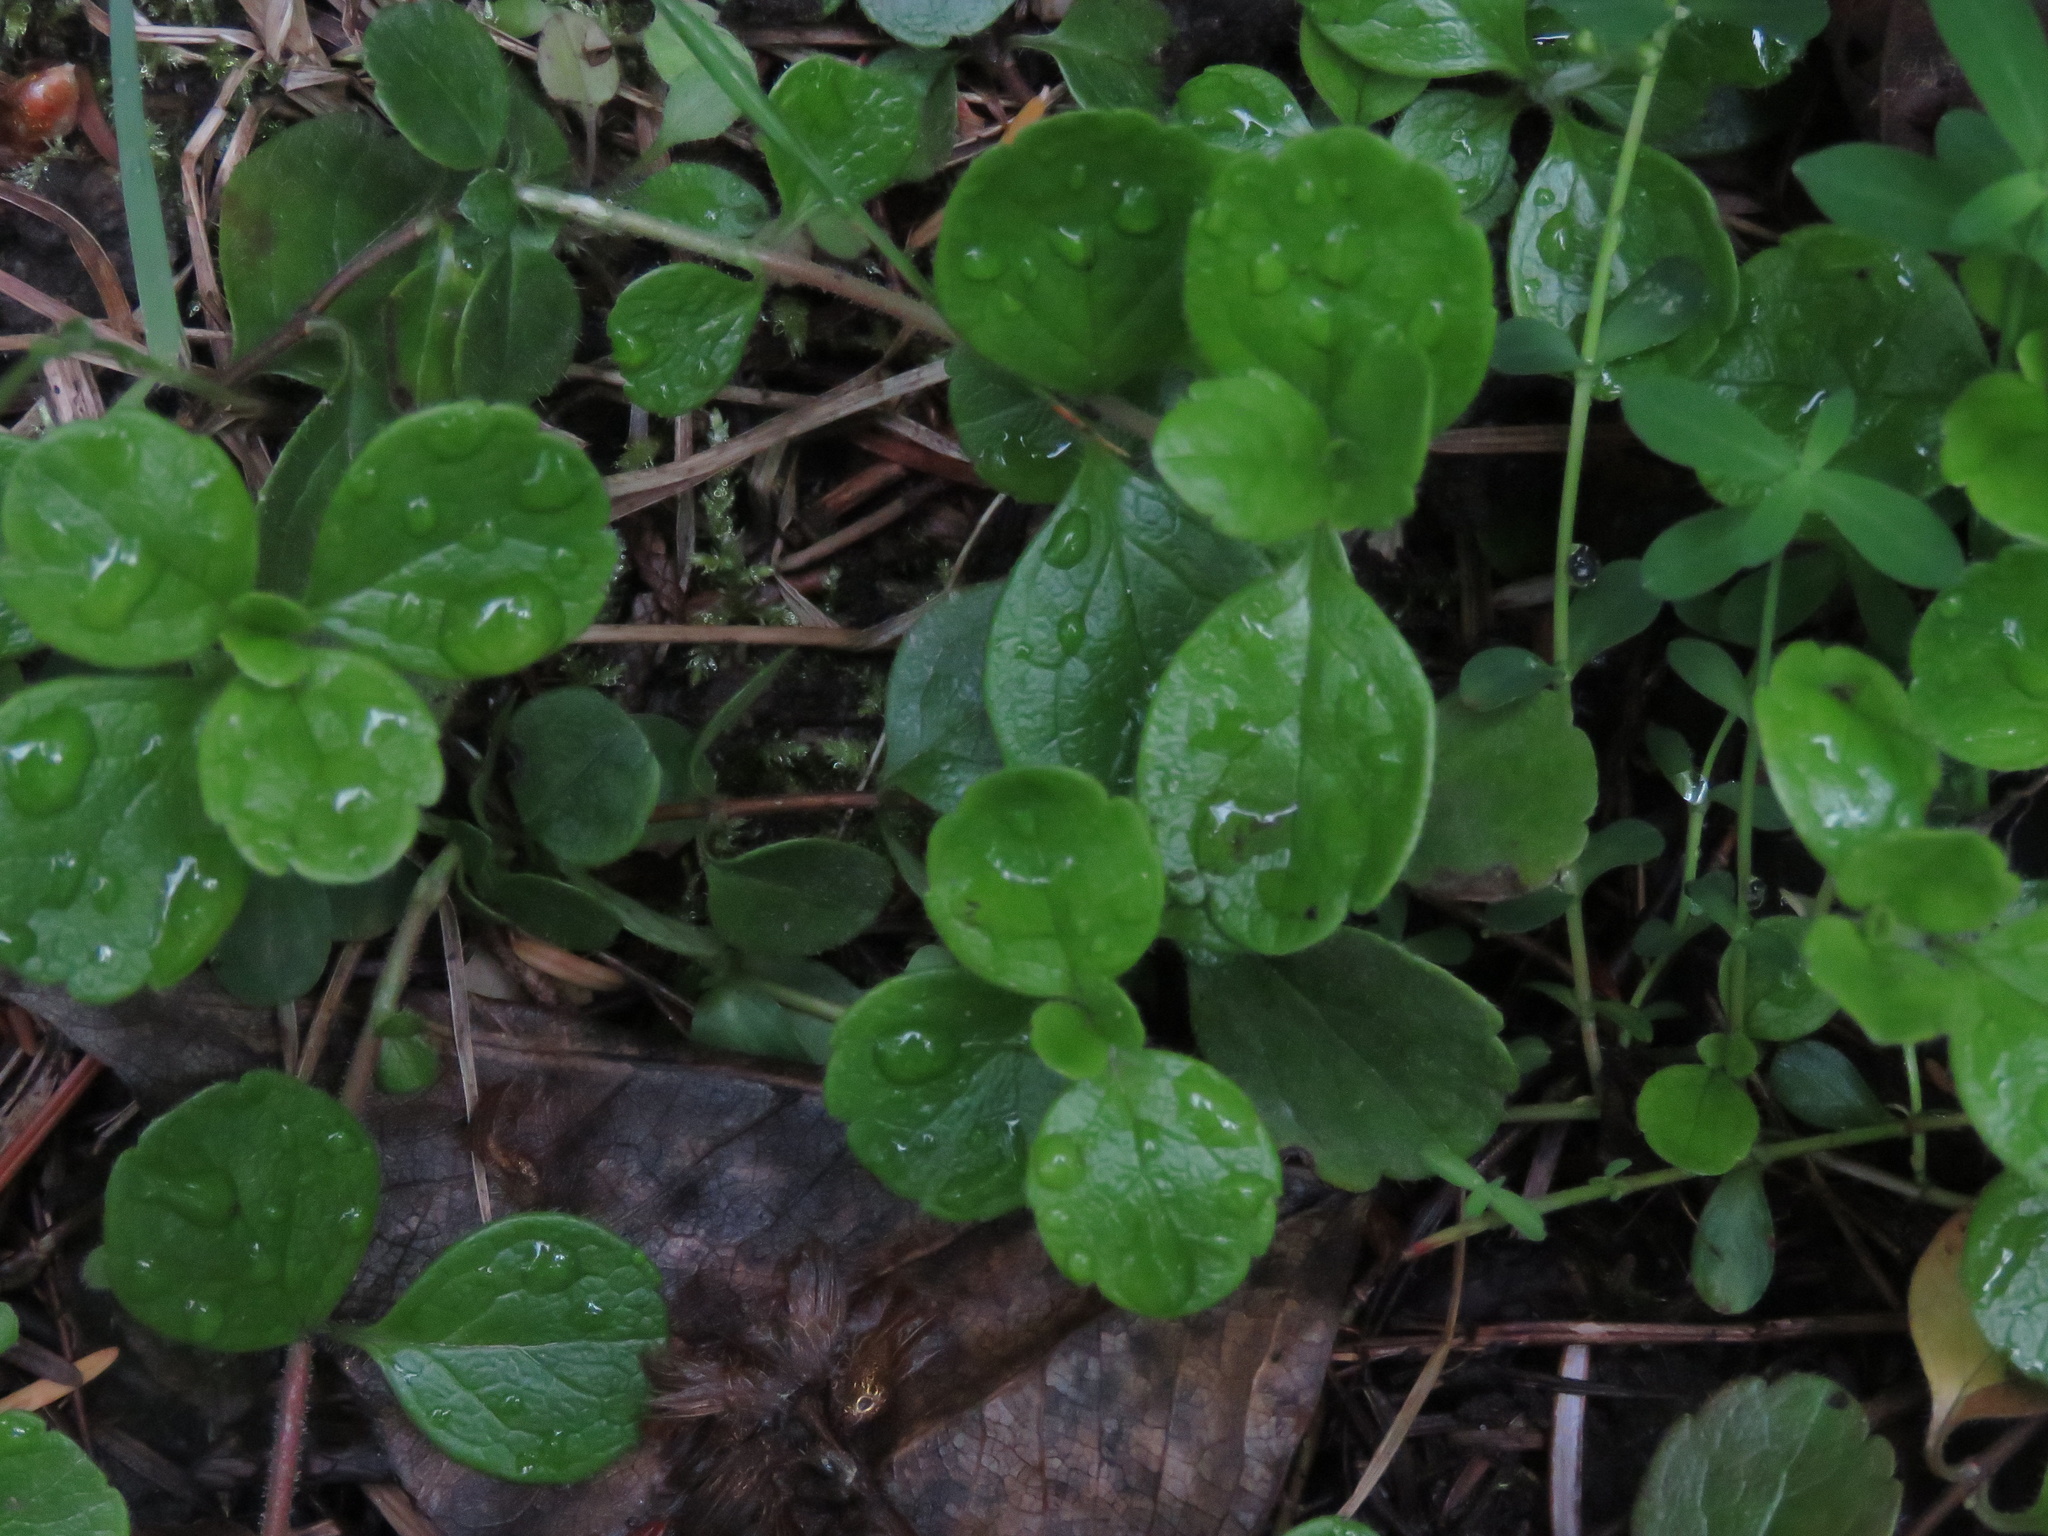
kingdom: Plantae
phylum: Tracheophyta
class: Magnoliopsida
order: Dipsacales
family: Caprifoliaceae
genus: Linnaea
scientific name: Linnaea borealis
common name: Twinflower
